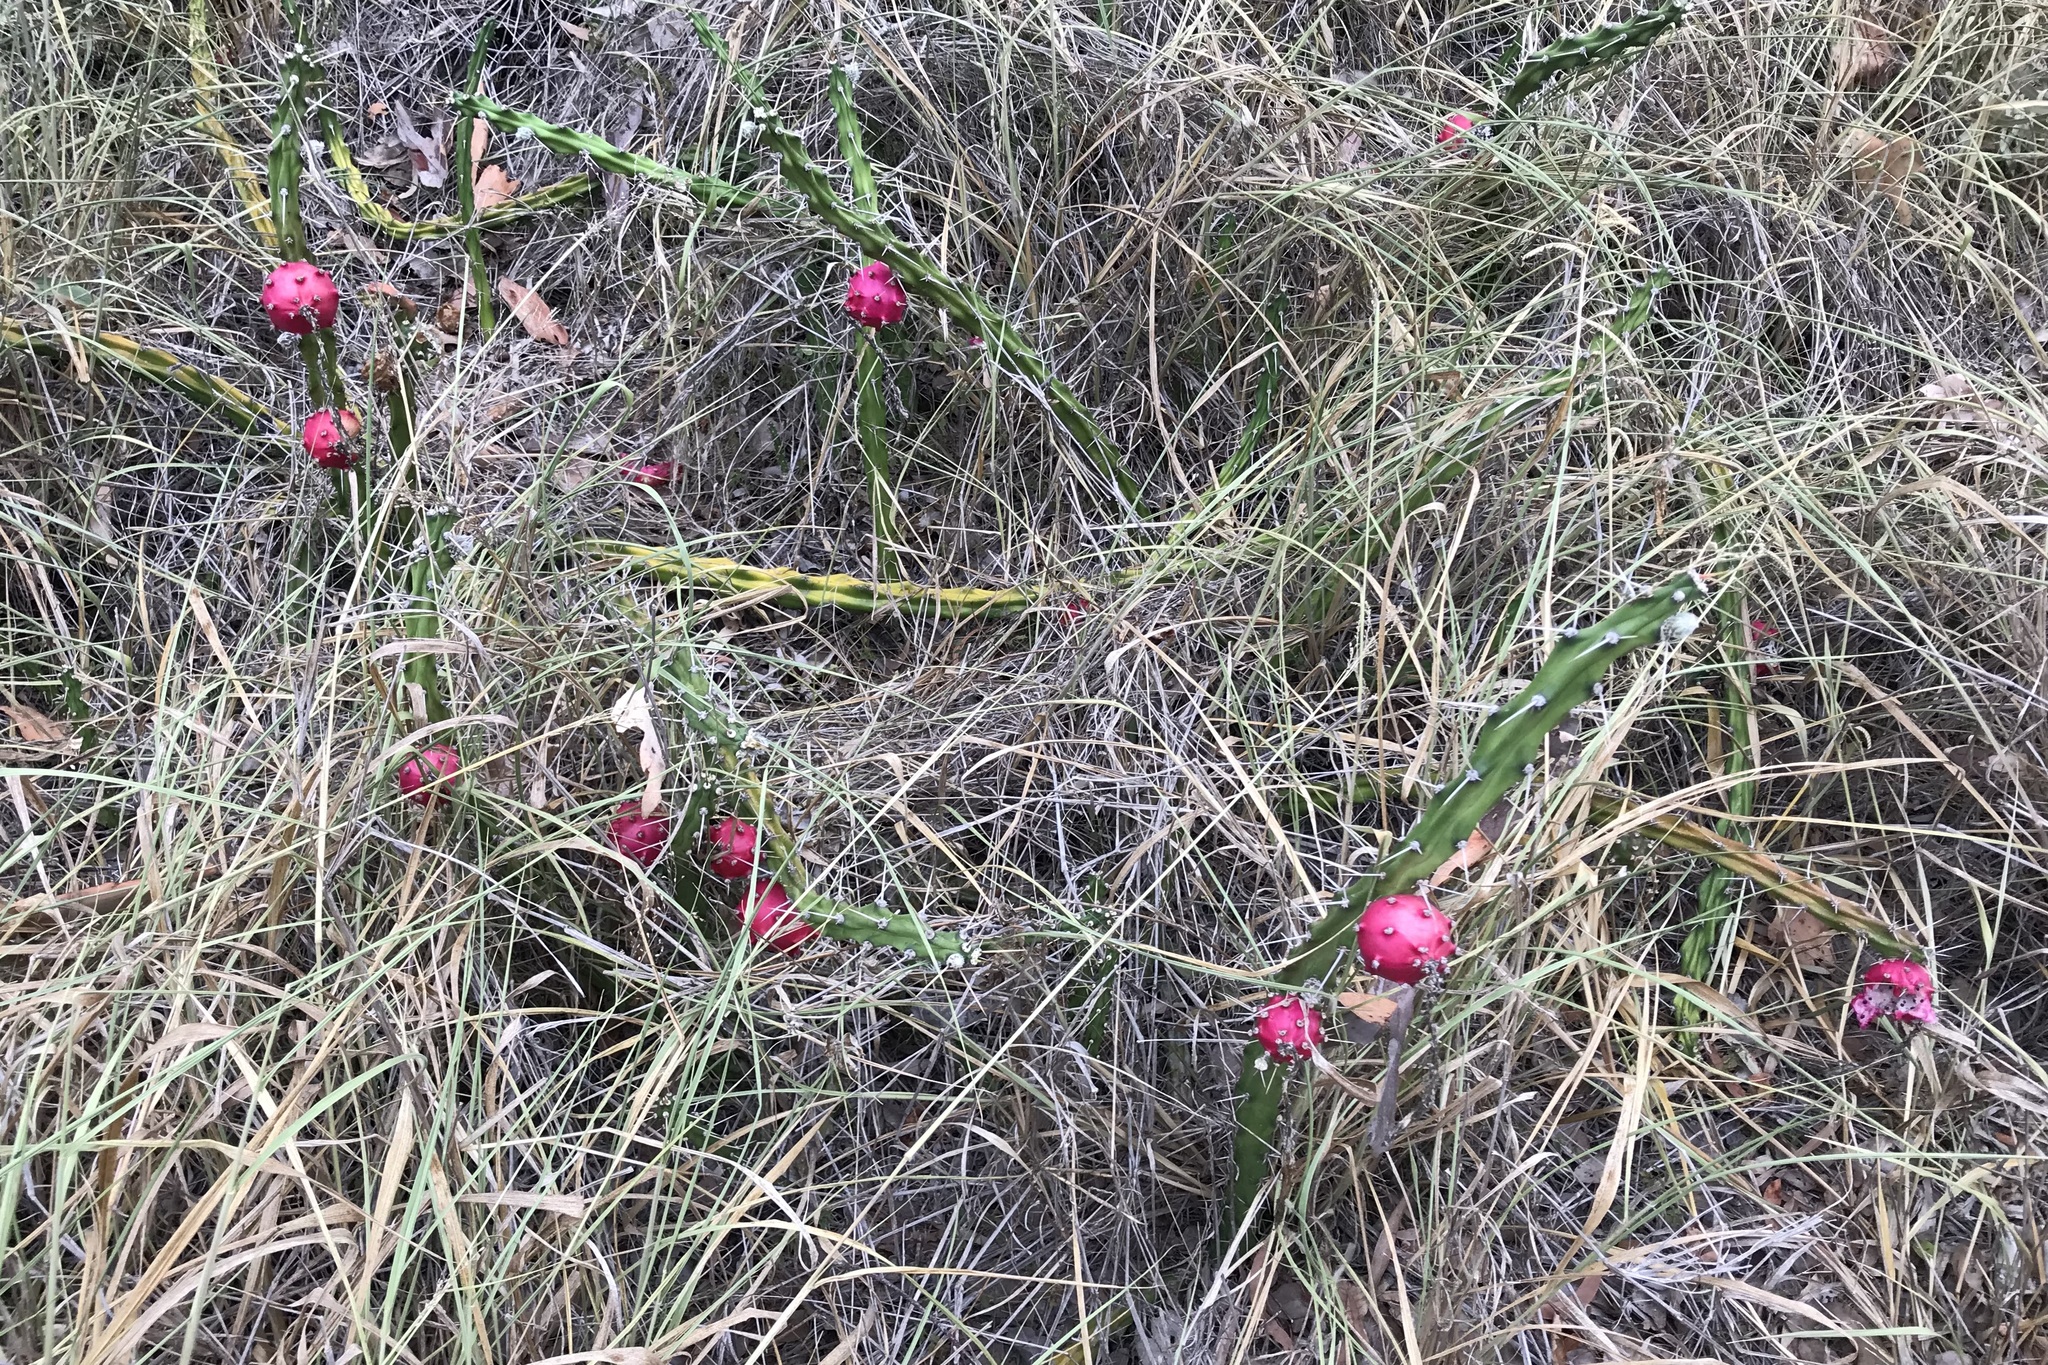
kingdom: Plantae
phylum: Tracheophyta
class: Magnoliopsida
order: Caryophyllales
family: Cactaceae
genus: Harrisia
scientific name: Harrisia martinii
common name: Moon cactus
